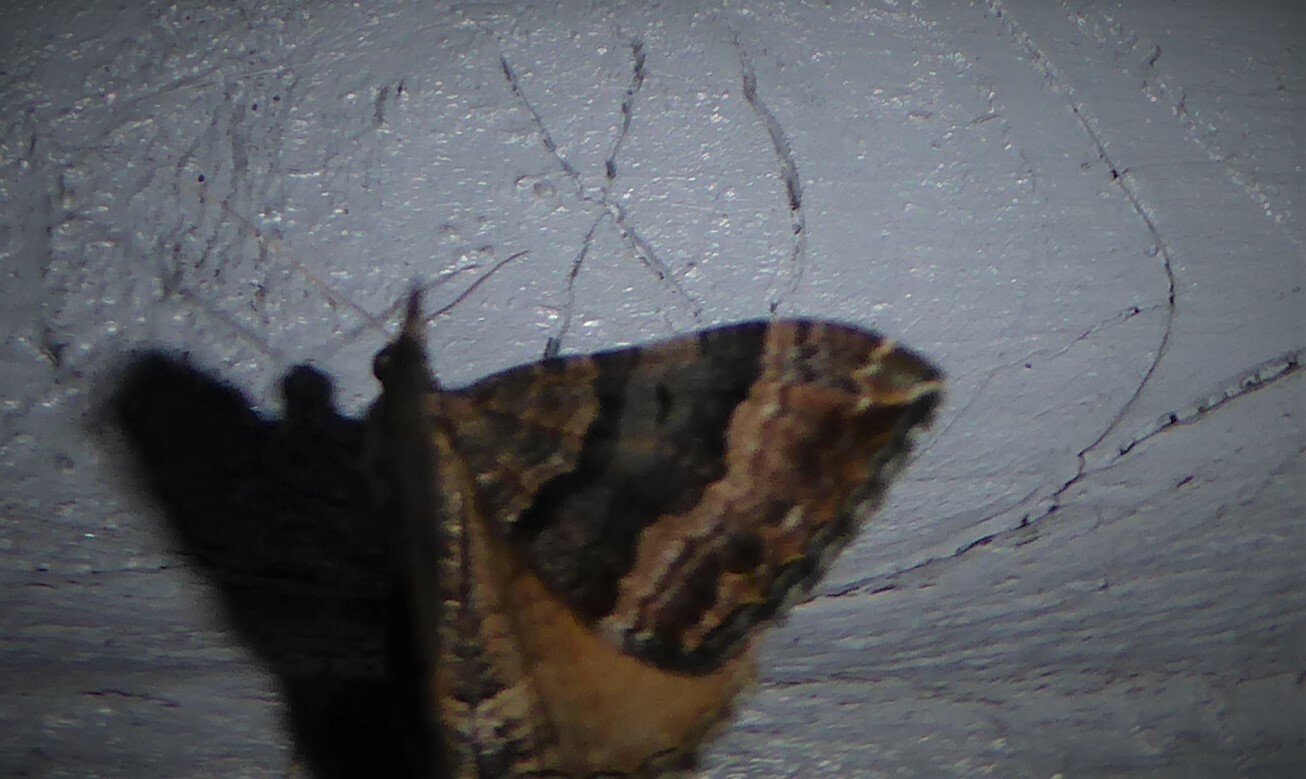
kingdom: Animalia
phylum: Arthropoda
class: Insecta
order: Lepidoptera
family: Geometridae
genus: Hydriomena
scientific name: Hydriomena deltoidata
